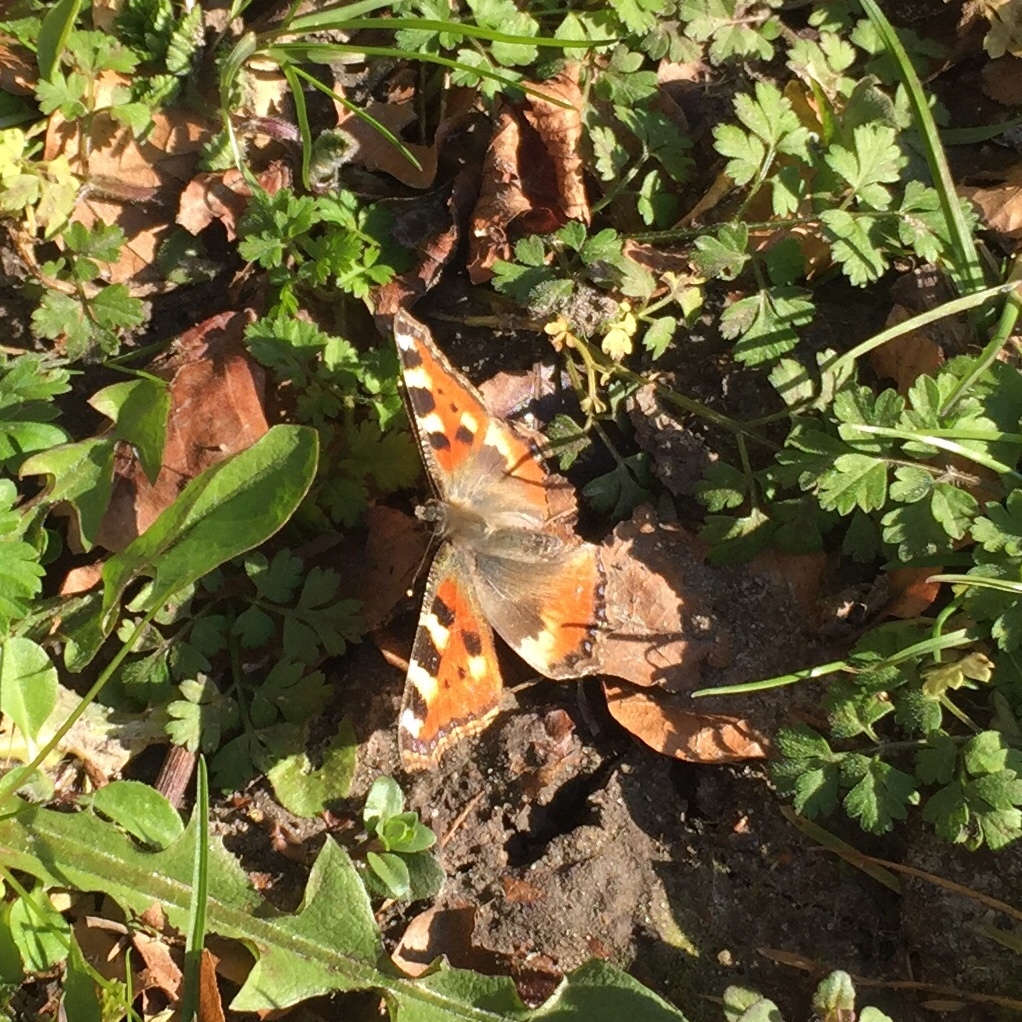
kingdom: Animalia
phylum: Arthropoda
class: Insecta
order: Lepidoptera
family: Nymphalidae
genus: Aglais
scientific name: Aglais urticae
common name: Small tortoiseshell
